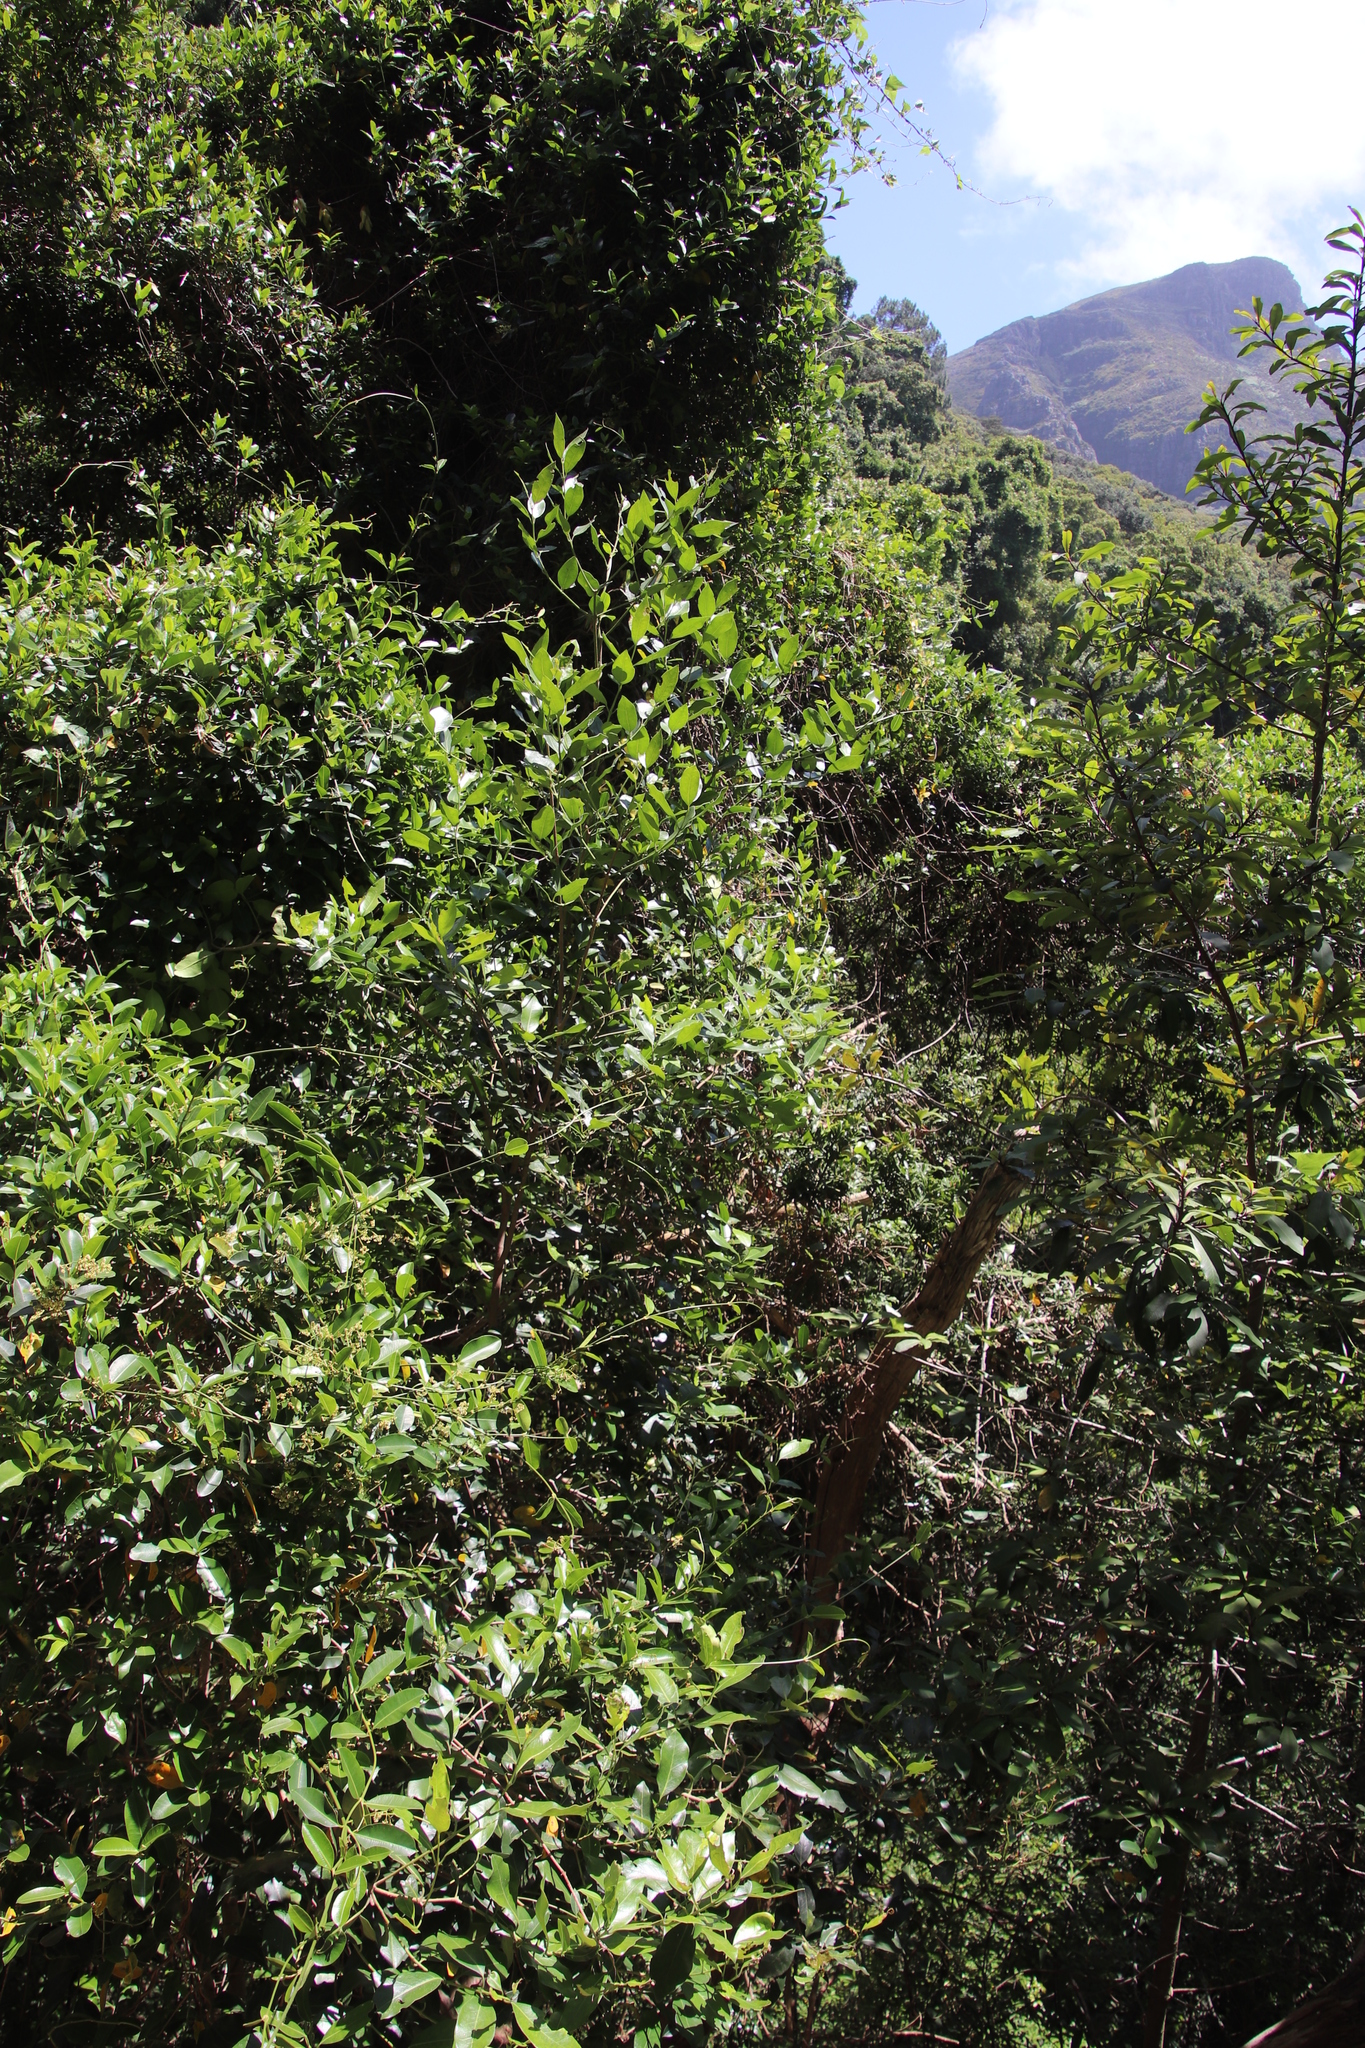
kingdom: Plantae
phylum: Tracheophyta
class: Magnoliopsida
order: Gentianales
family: Apocynaceae
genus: Secamone
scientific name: Secamone alpini
